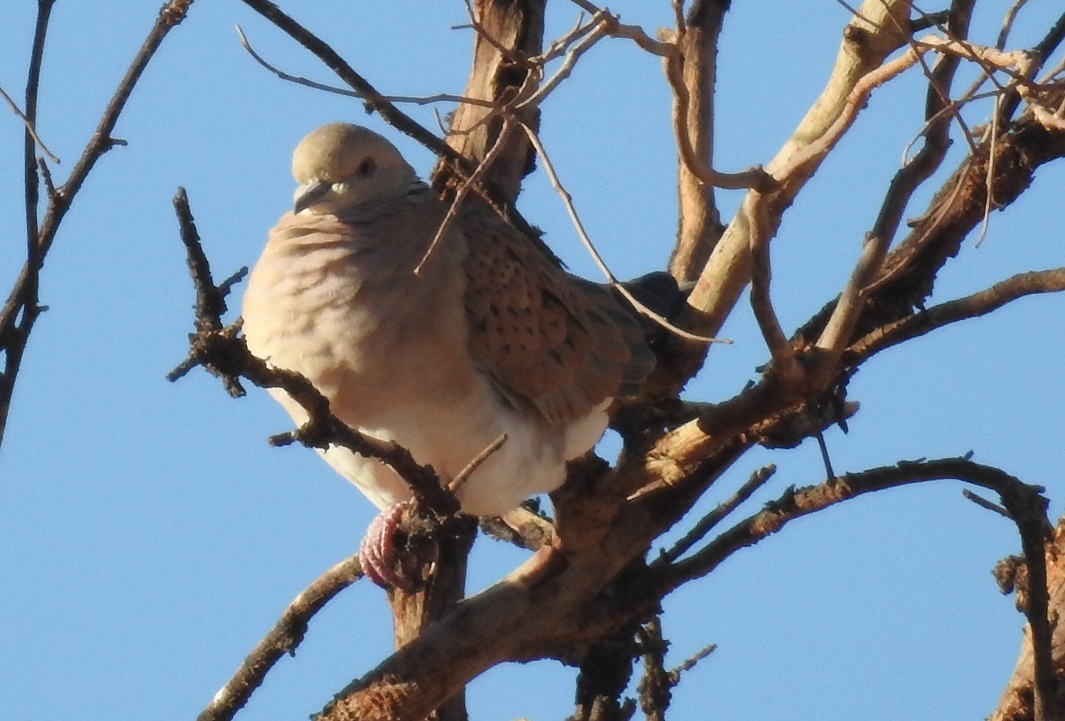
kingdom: Animalia
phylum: Chordata
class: Aves
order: Columbiformes
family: Columbidae
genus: Streptopelia
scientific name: Streptopelia turtur
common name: European turtle dove
